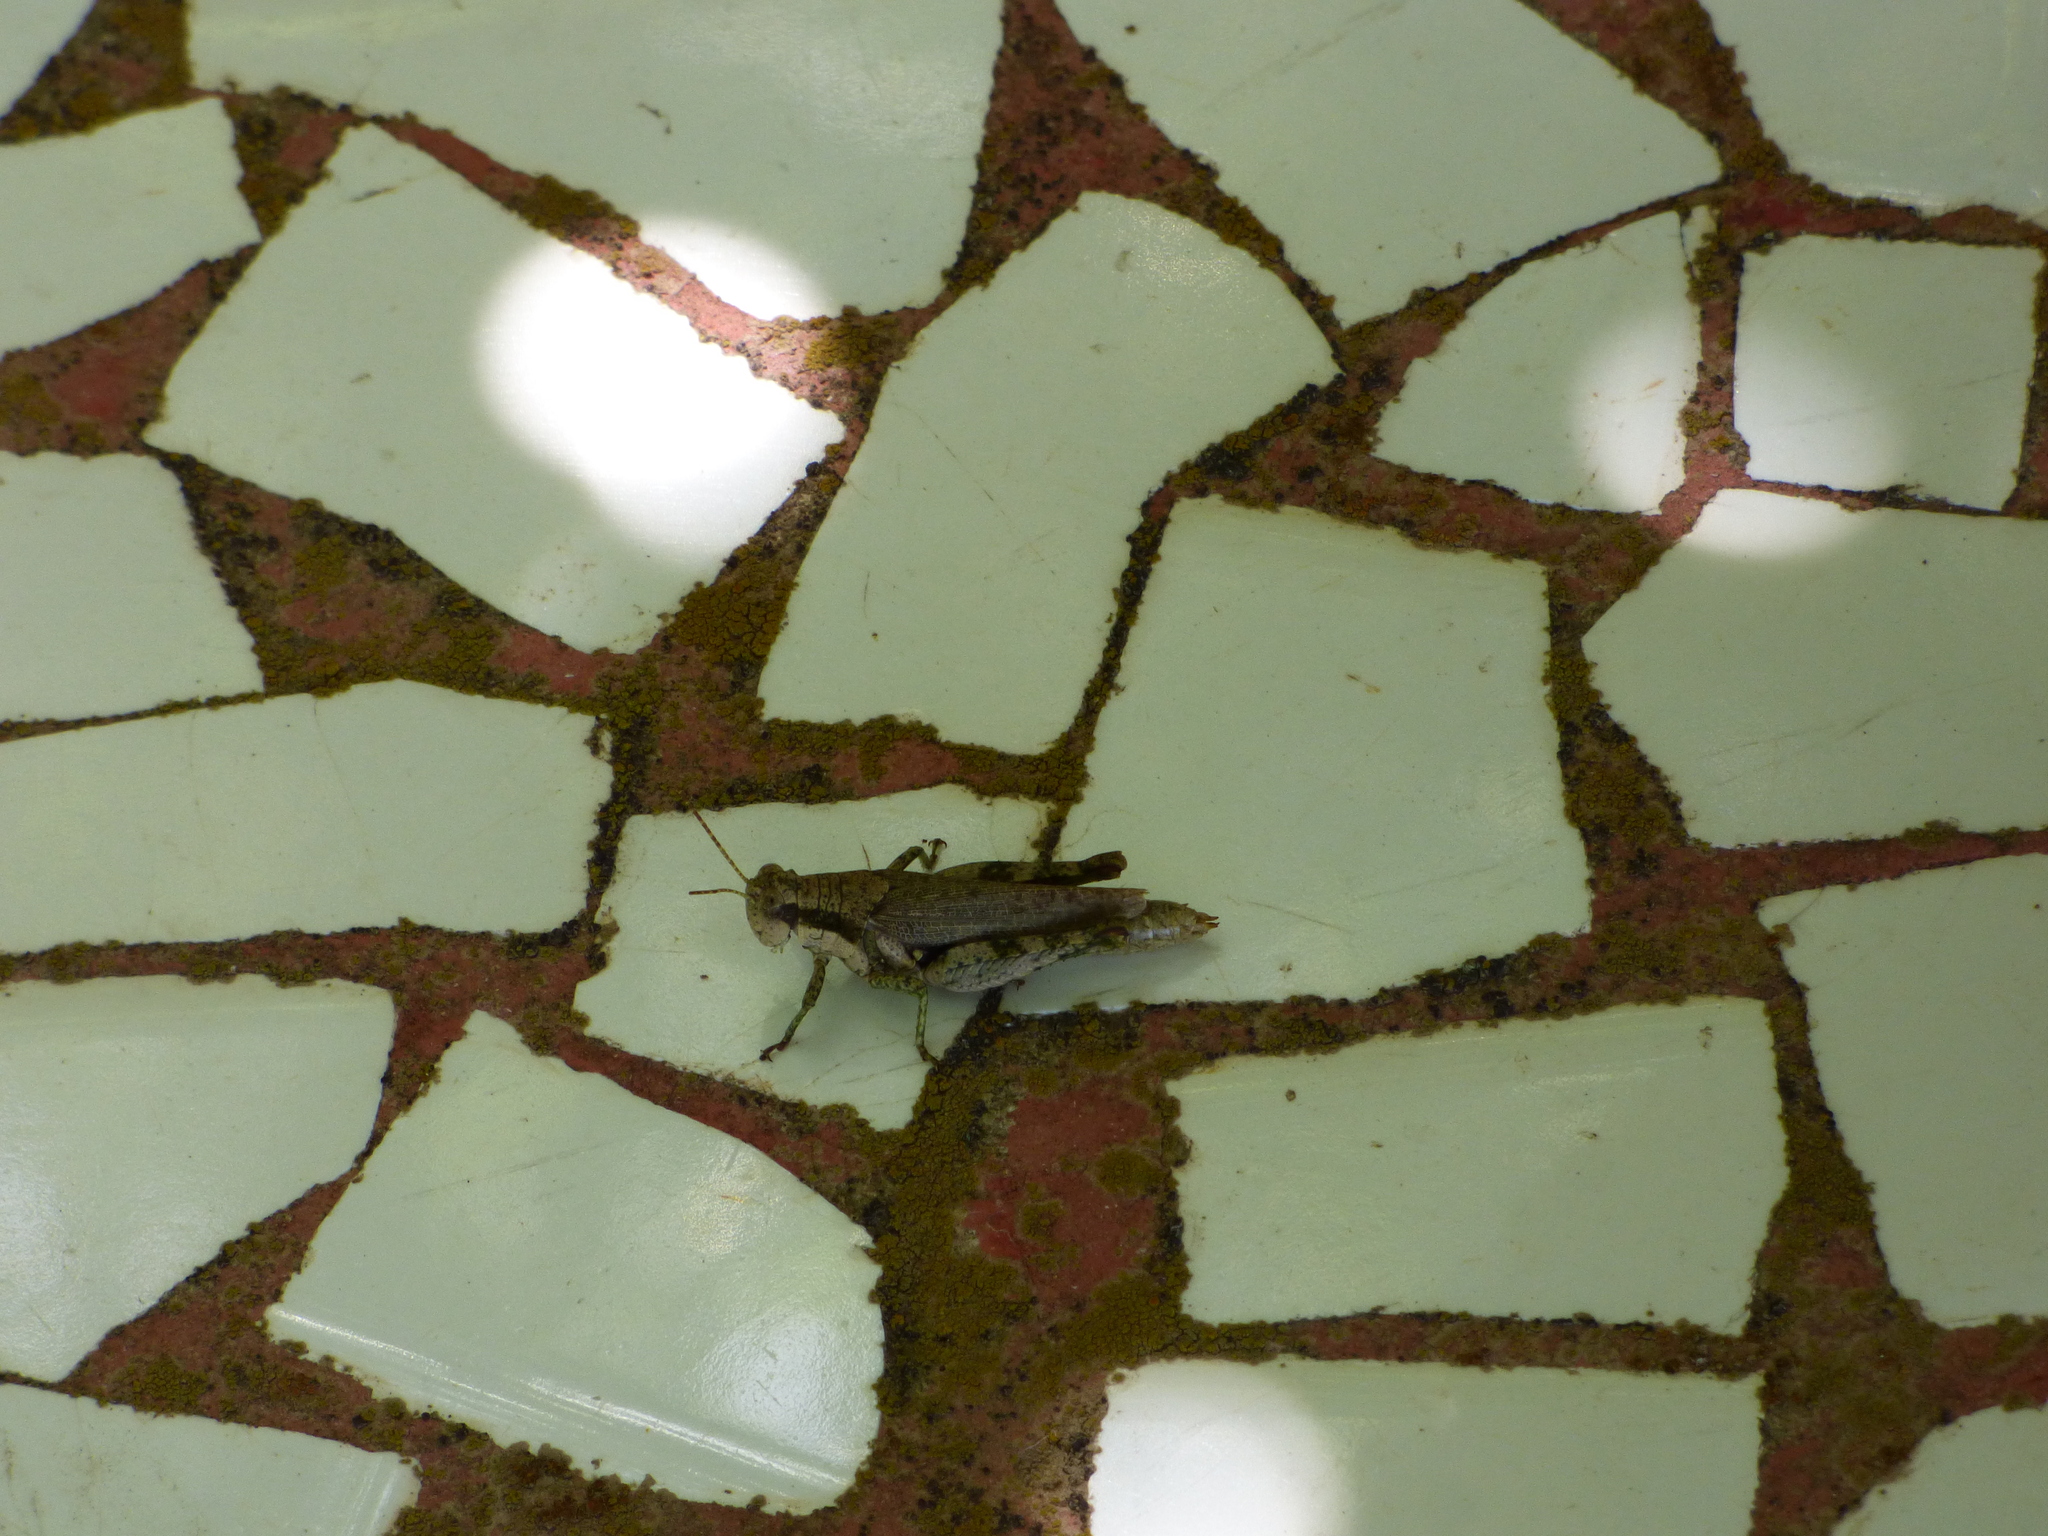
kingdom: Animalia
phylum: Arthropoda
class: Insecta
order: Orthoptera
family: Acrididae
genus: Ronderosia
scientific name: Ronderosia bergii
